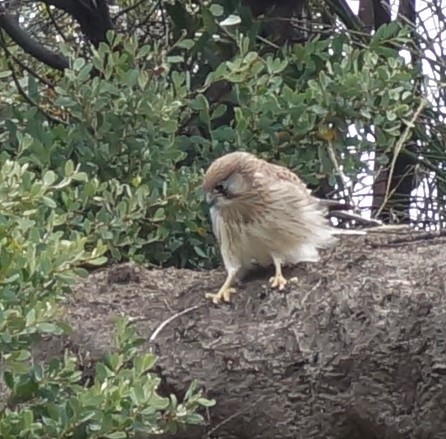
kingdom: Animalia
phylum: Chordata
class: Aves
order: Falconiformes
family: Falconidae
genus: Falco
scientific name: Falco cenchroides
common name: Nankeen kestrel
